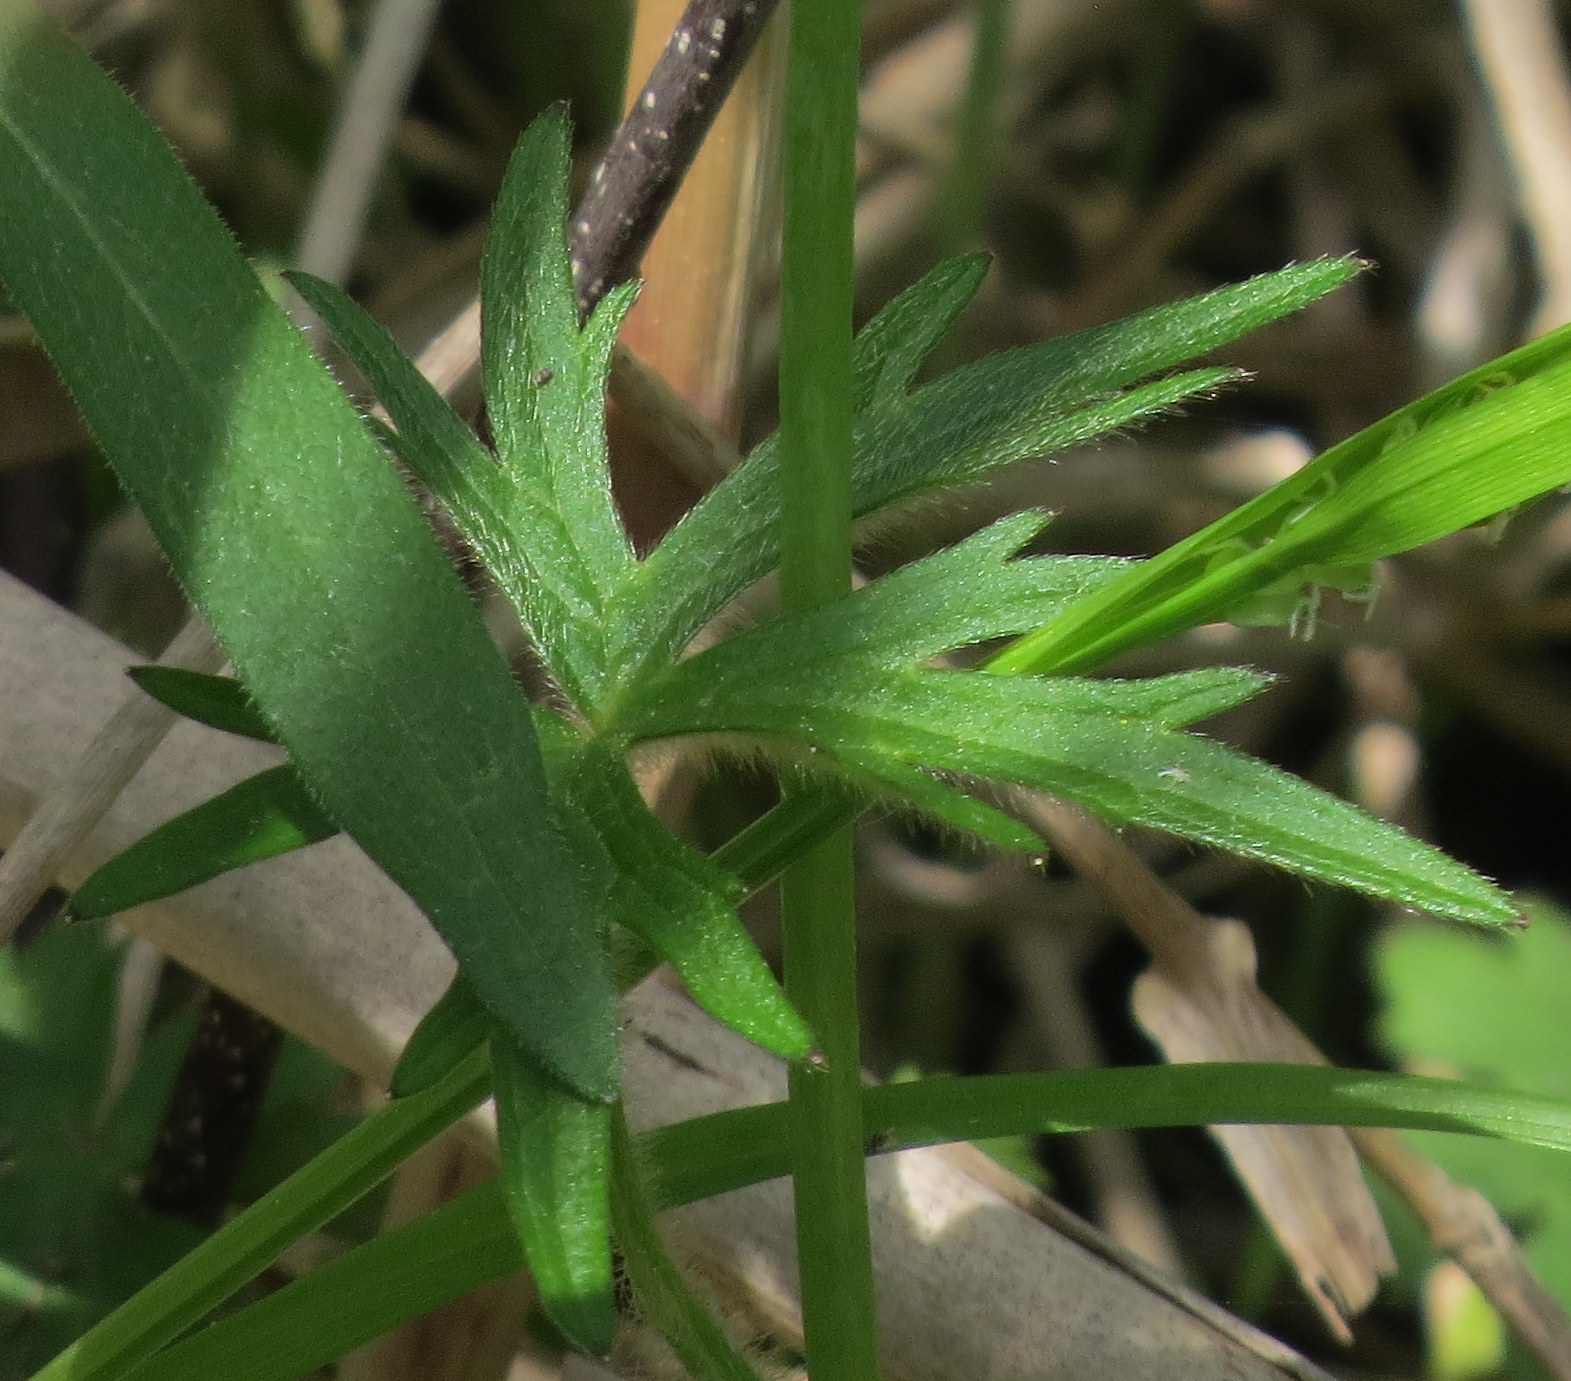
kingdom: Plantae
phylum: Tracheophyta
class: Magnoliopsida
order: Ranunculales
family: Ranunculaceae
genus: Ranunculus
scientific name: Ranunculus acris
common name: Meadow buttercup
